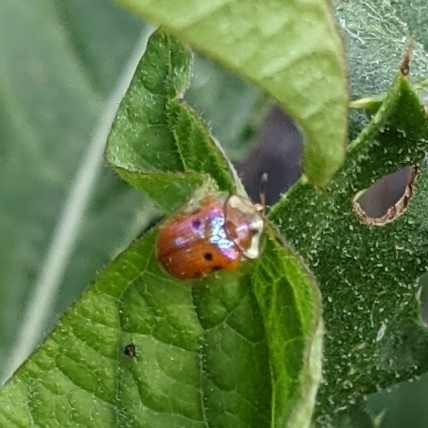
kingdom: Animalia
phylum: Arthropoda
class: Insecta
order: Coleoptera
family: Chrysomelidae
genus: Charidotella
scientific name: Charidotella sexpunctata
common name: Golden tortoise beetle
